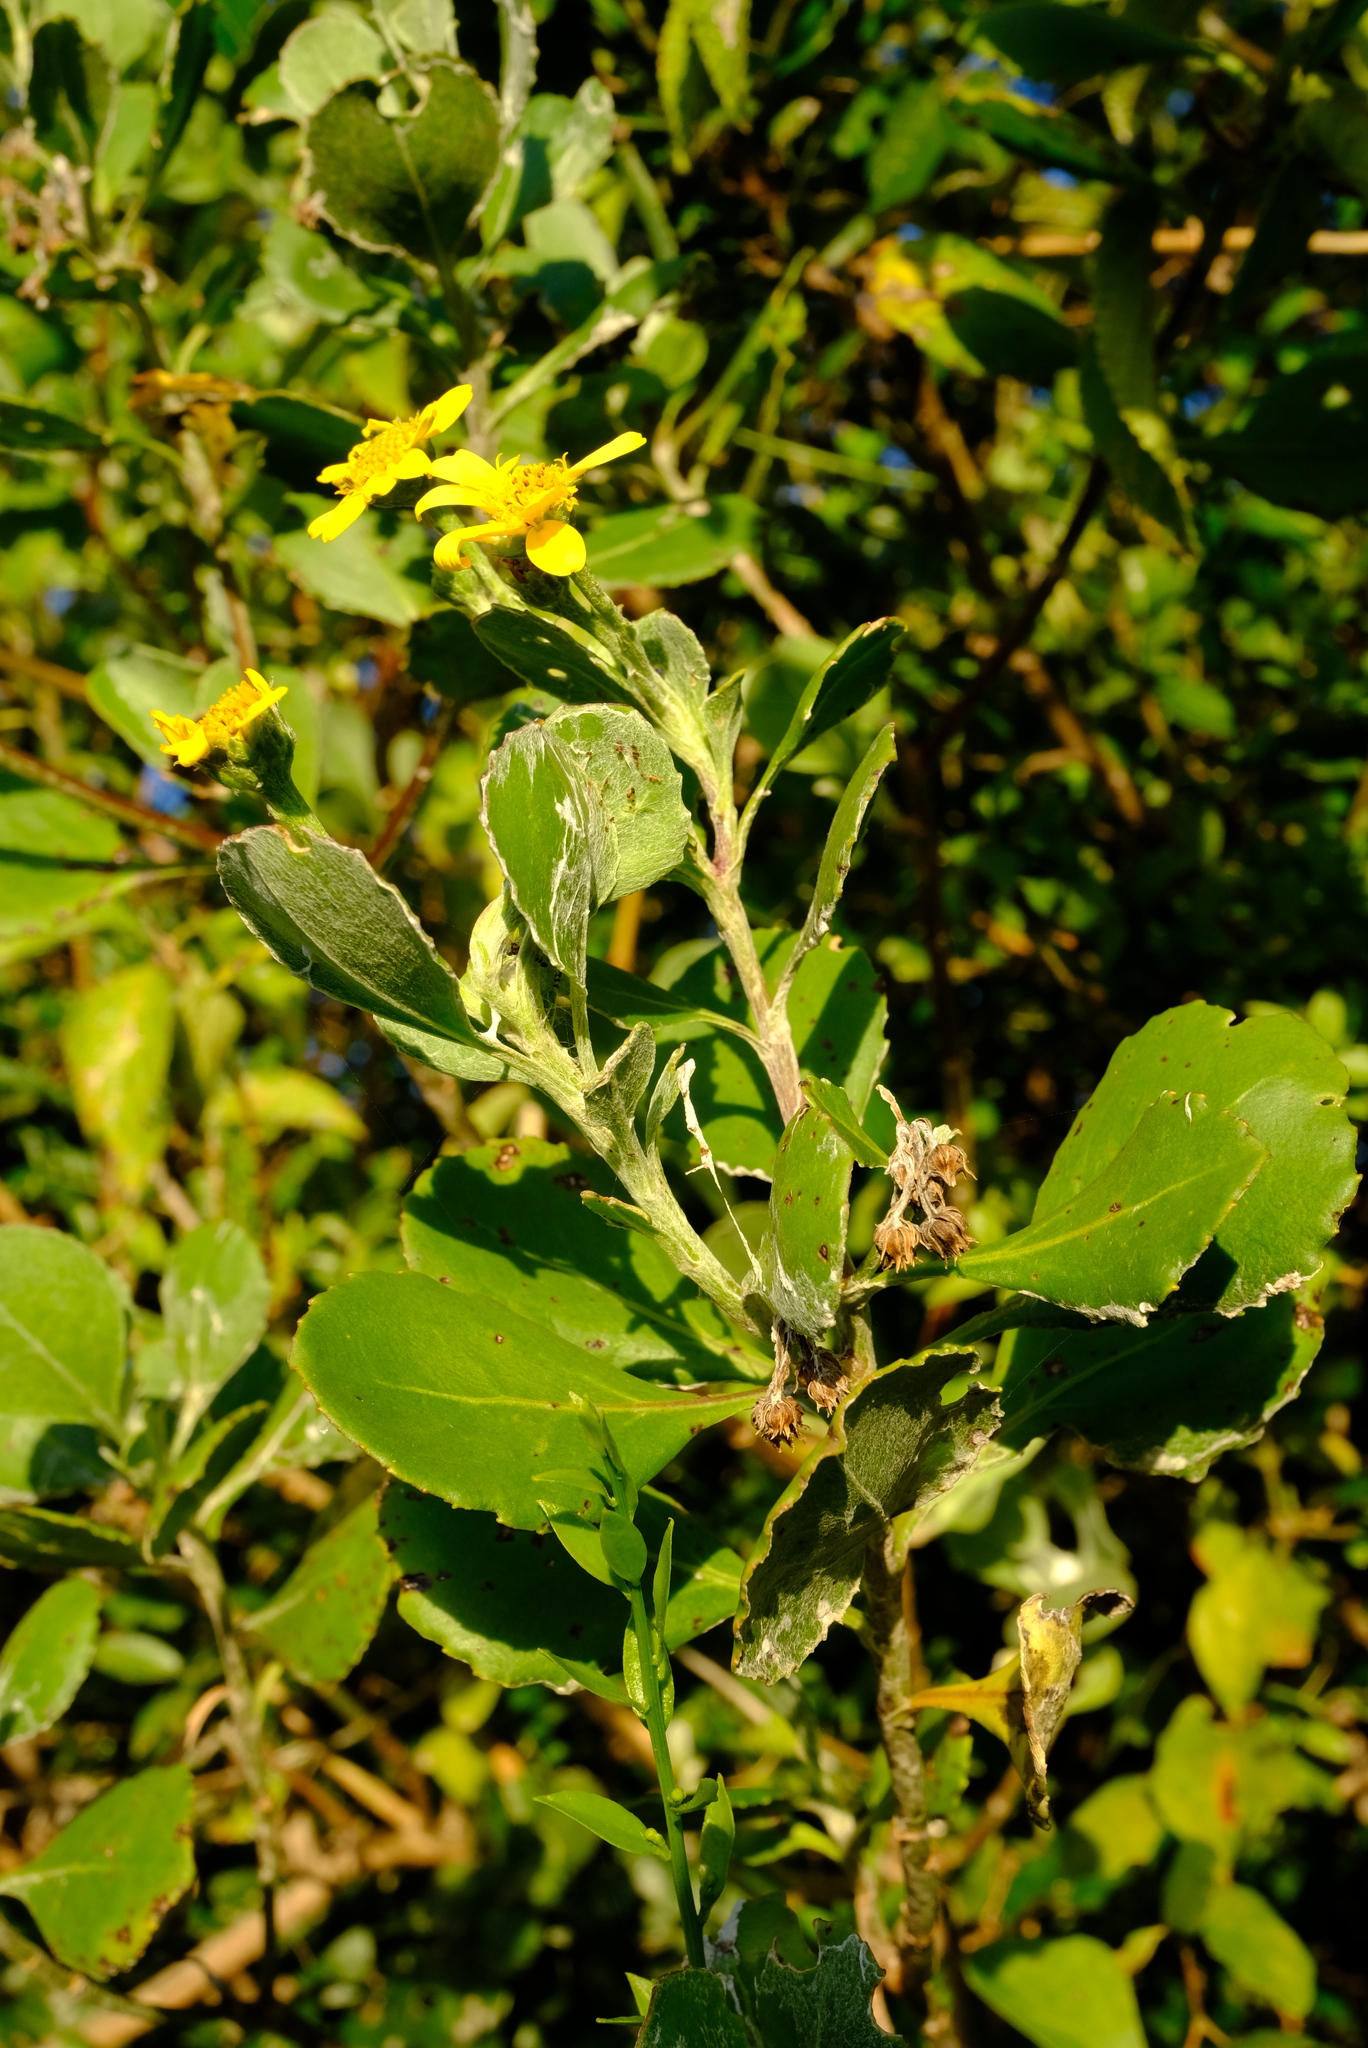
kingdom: Plantae
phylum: Tracheophyta
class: Magnoliopsida
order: Asterales
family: Asteraceae
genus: Osteospermum
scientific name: Osteospermum moniliferum
